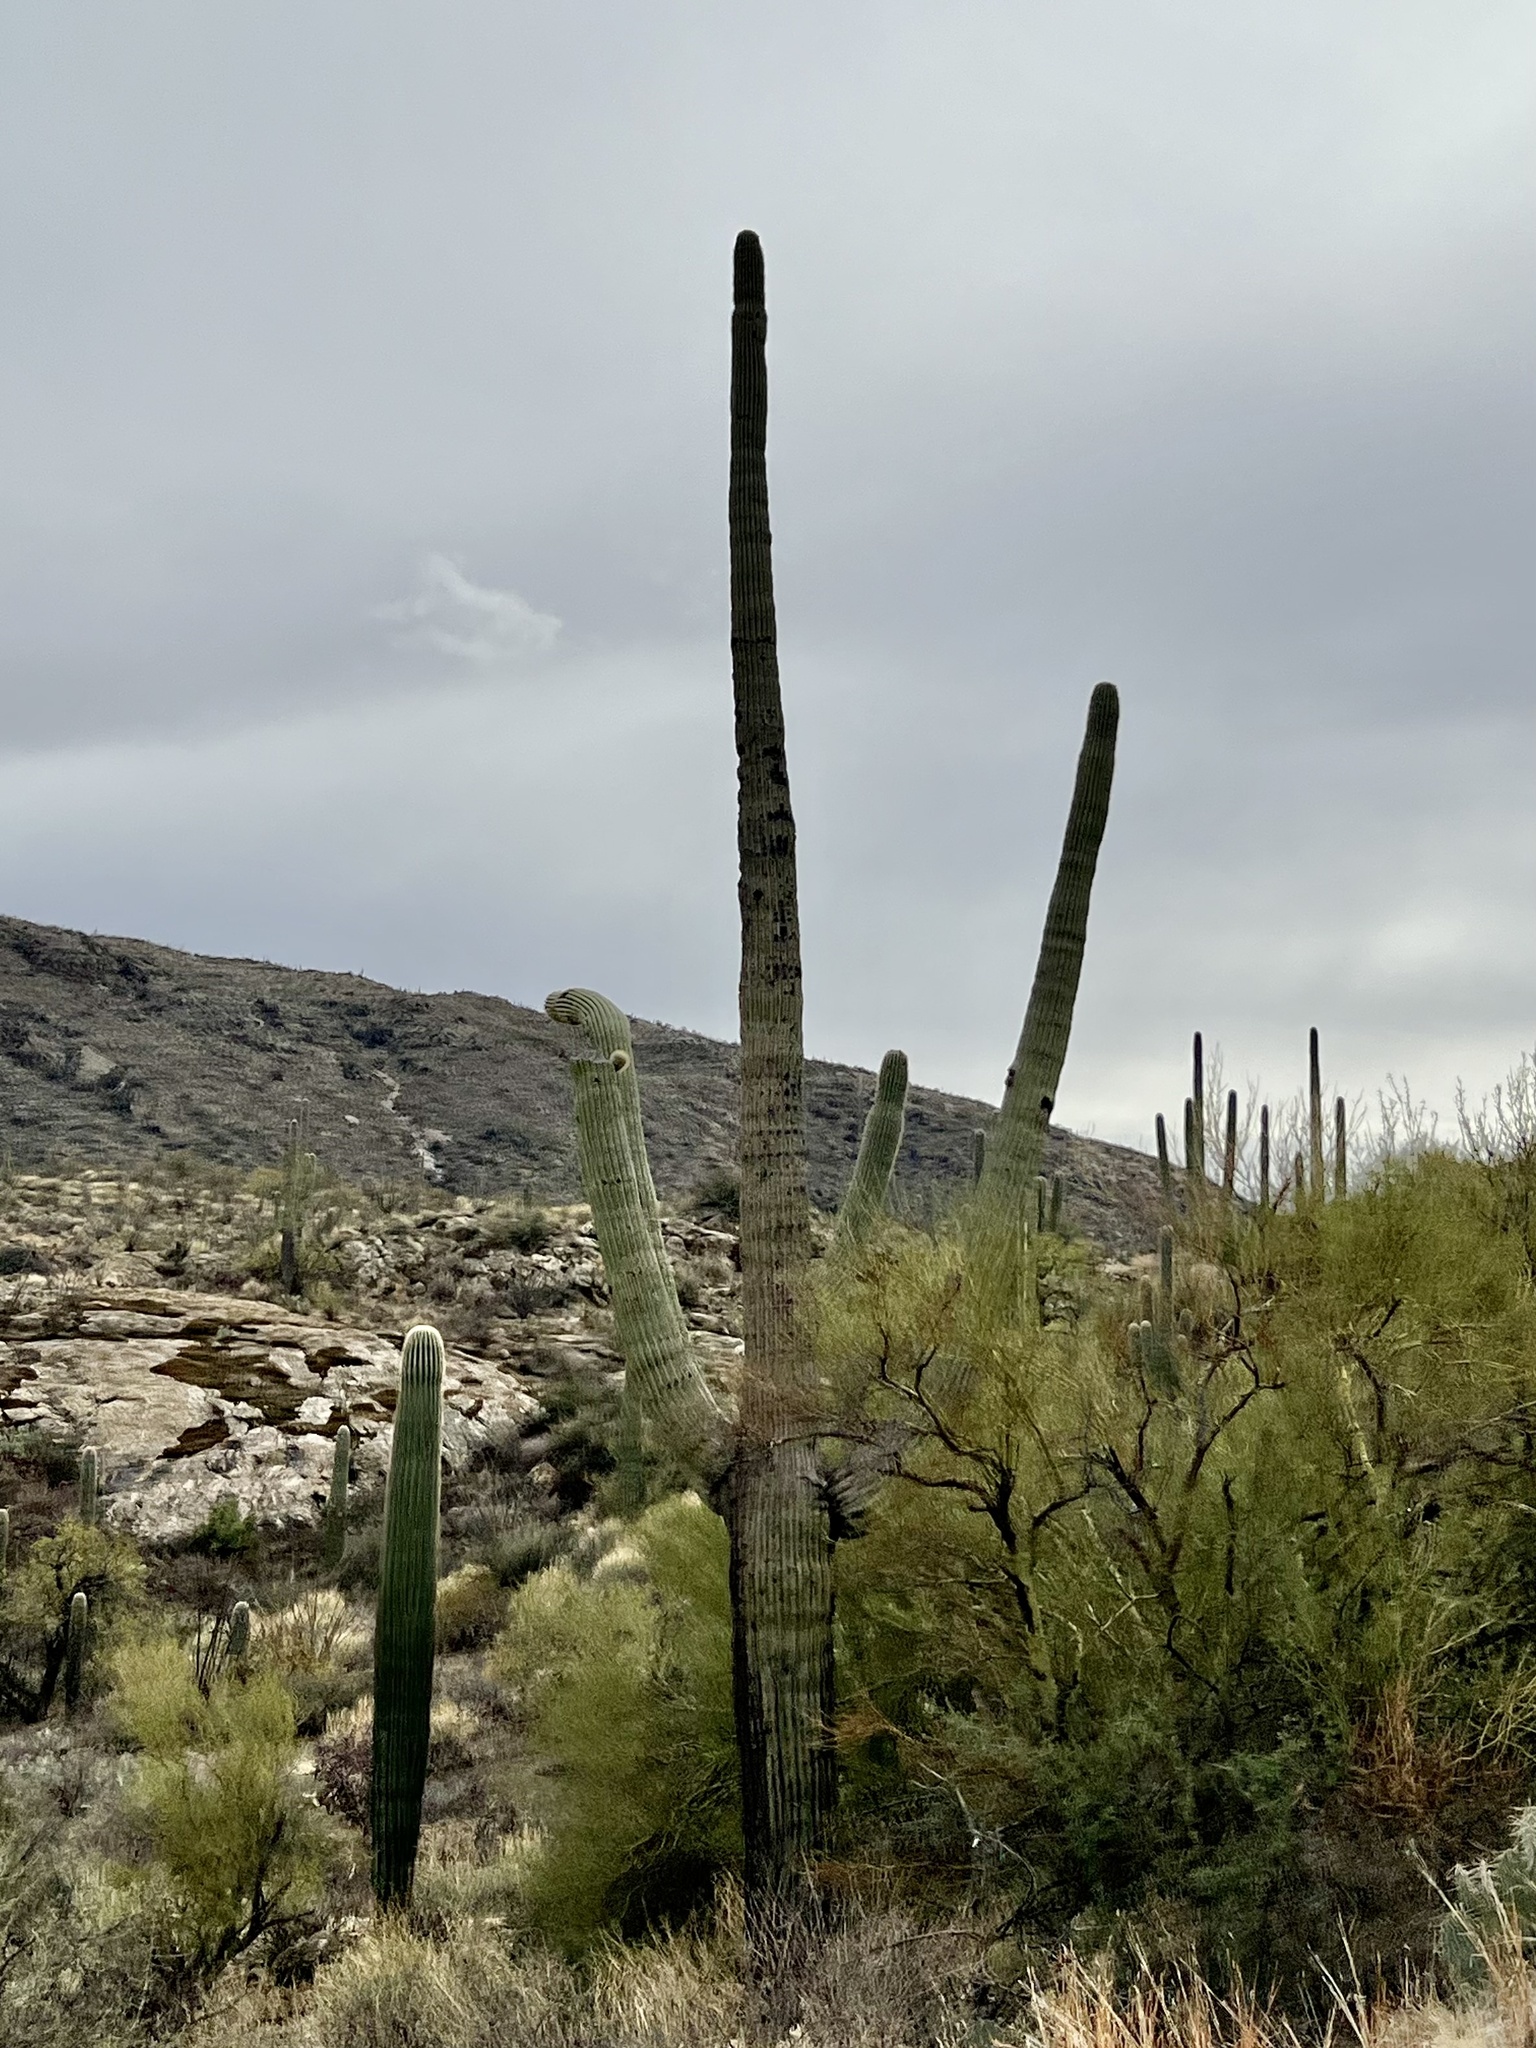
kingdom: Plantae
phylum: Tracheophyta
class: Magnoliopsida
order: Caryophyllales
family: Cactaceae
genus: Carnegiea
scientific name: Carnegiea gigantea
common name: Saguaro
